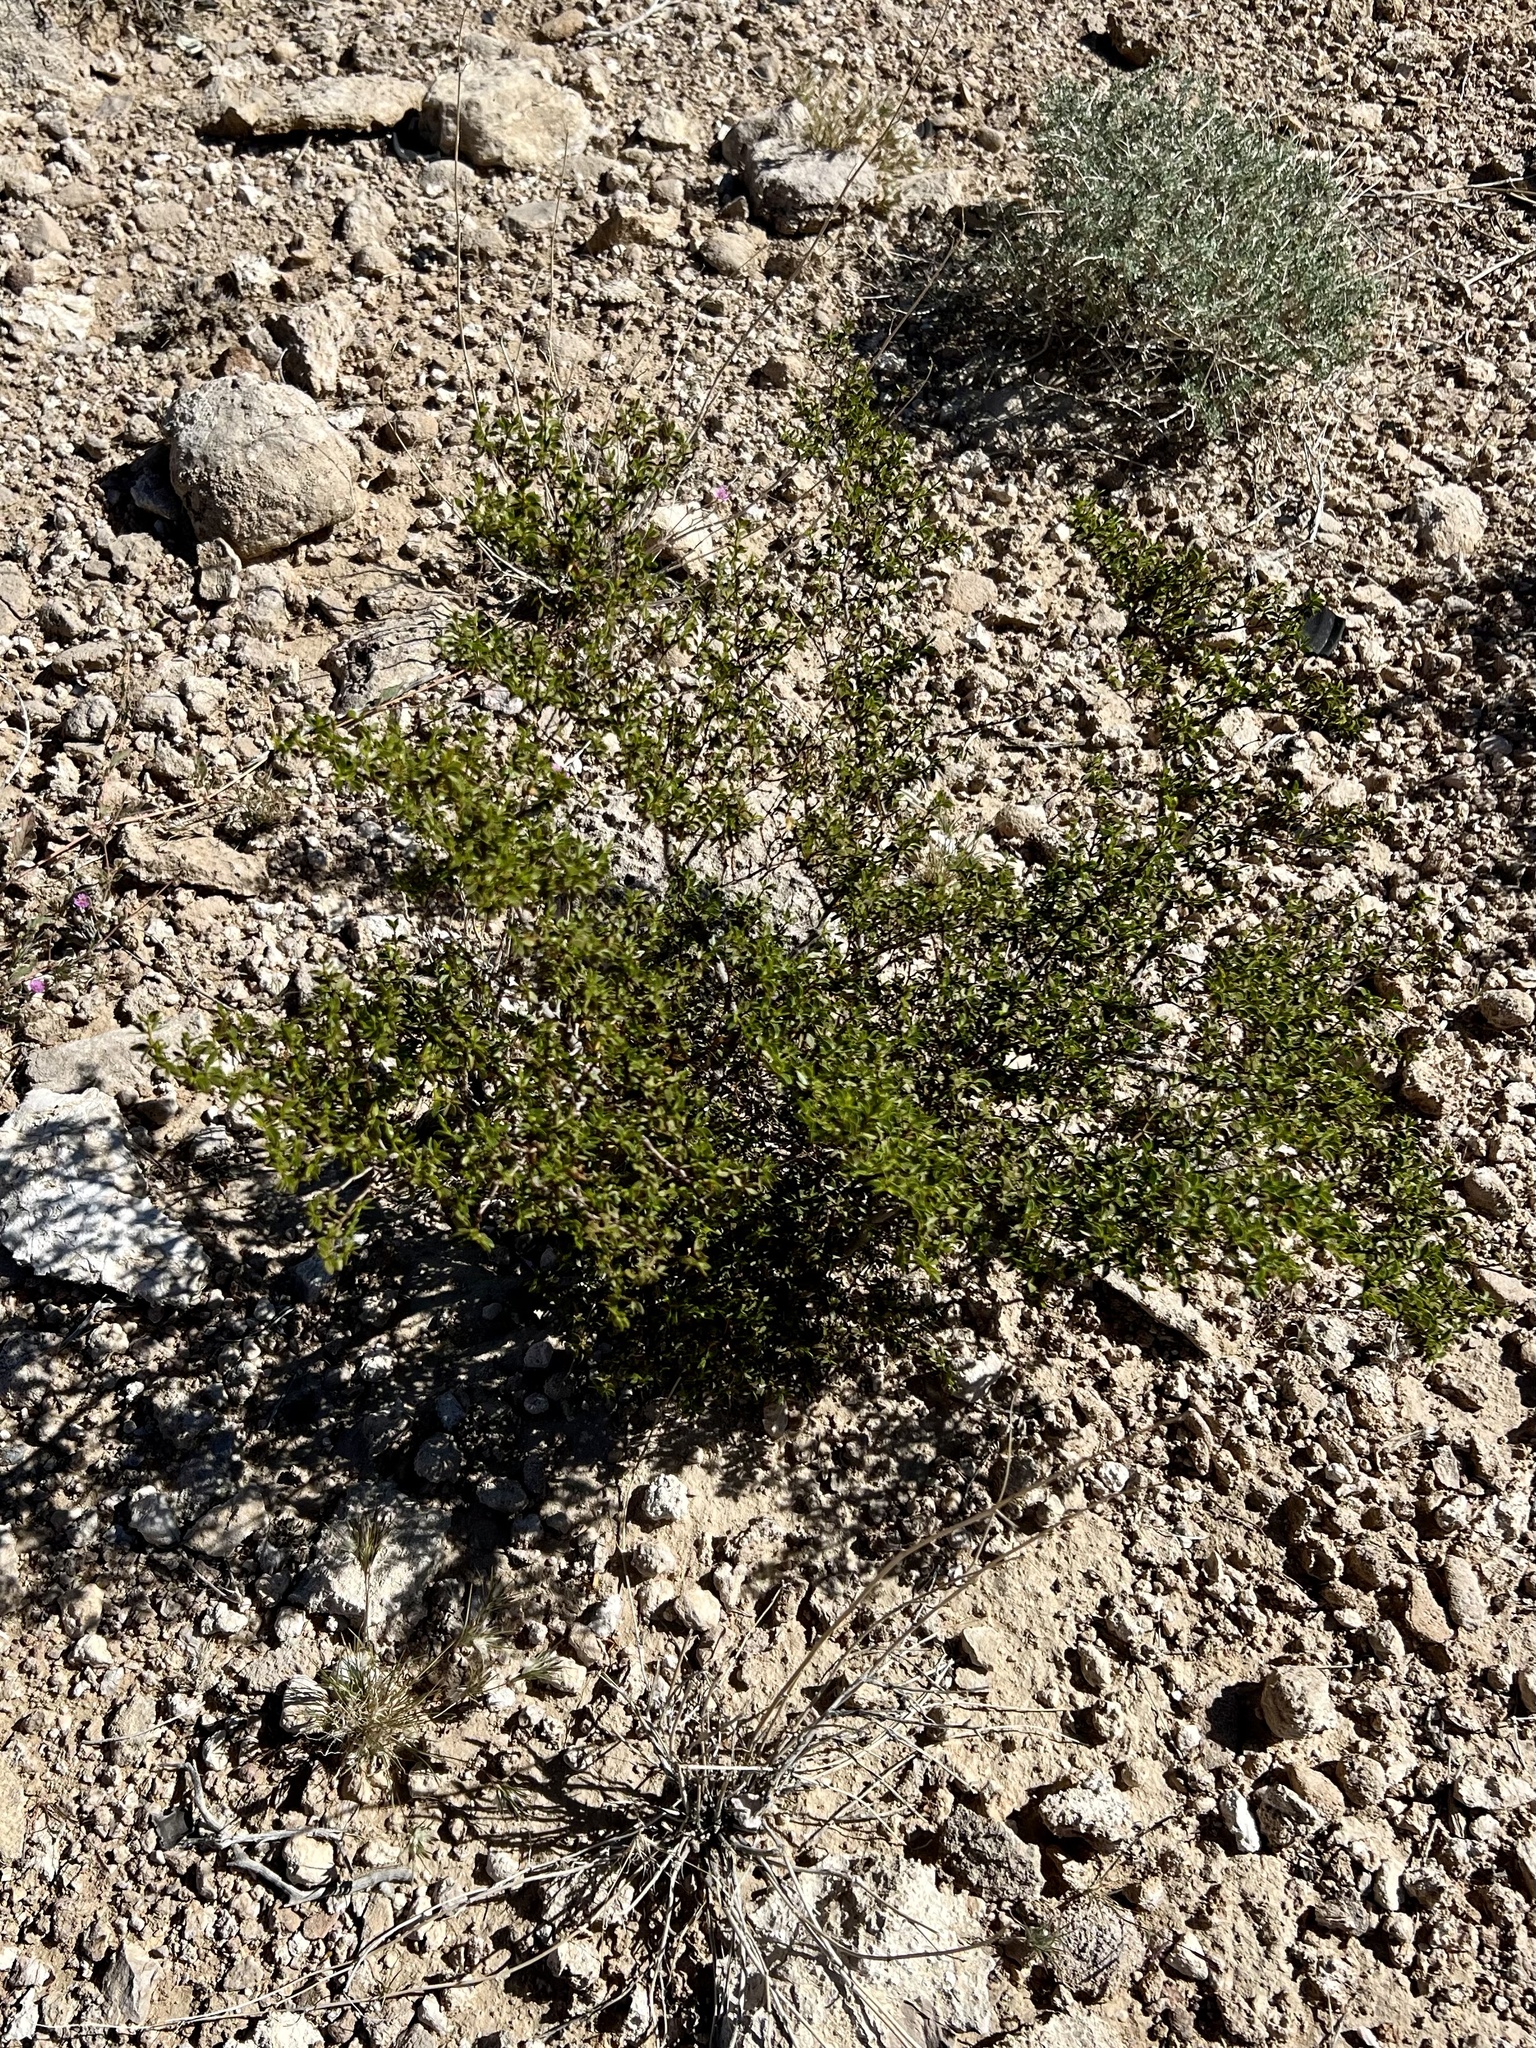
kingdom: Plantae
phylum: Tracheophyta
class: Magnoliopsida
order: Zygophyllales
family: Zygophyllaceae
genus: Larrea
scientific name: Larrea tridentata
